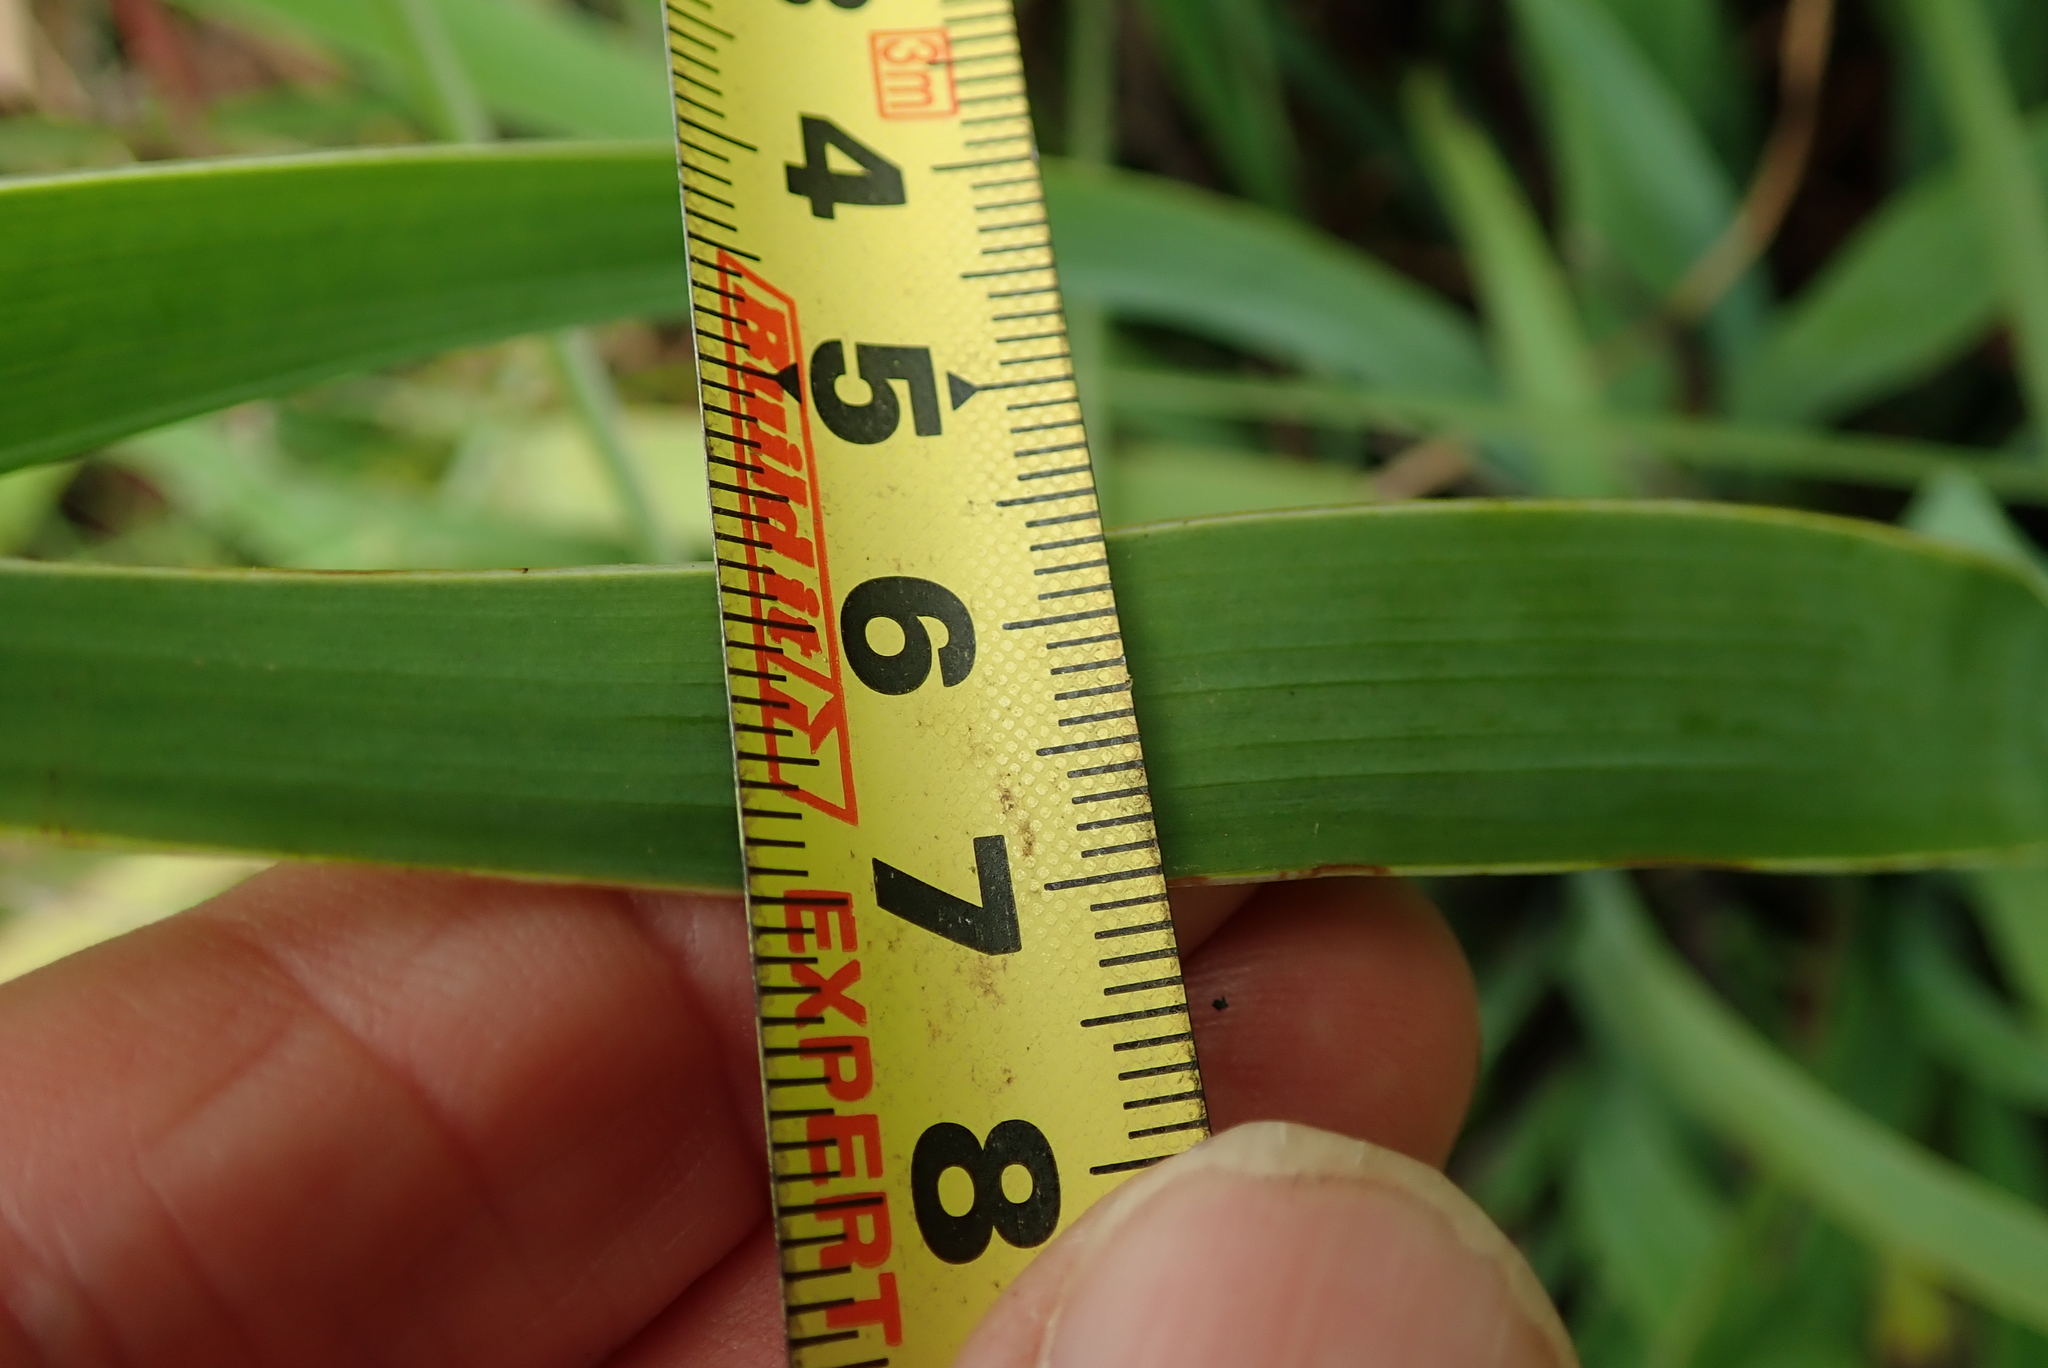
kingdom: Plantae
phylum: Tracheophyta
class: Liliopsida
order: Asparagales
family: Iridaceae
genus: Aristea
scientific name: Aristea ecklonii
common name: Blue corn-lily
